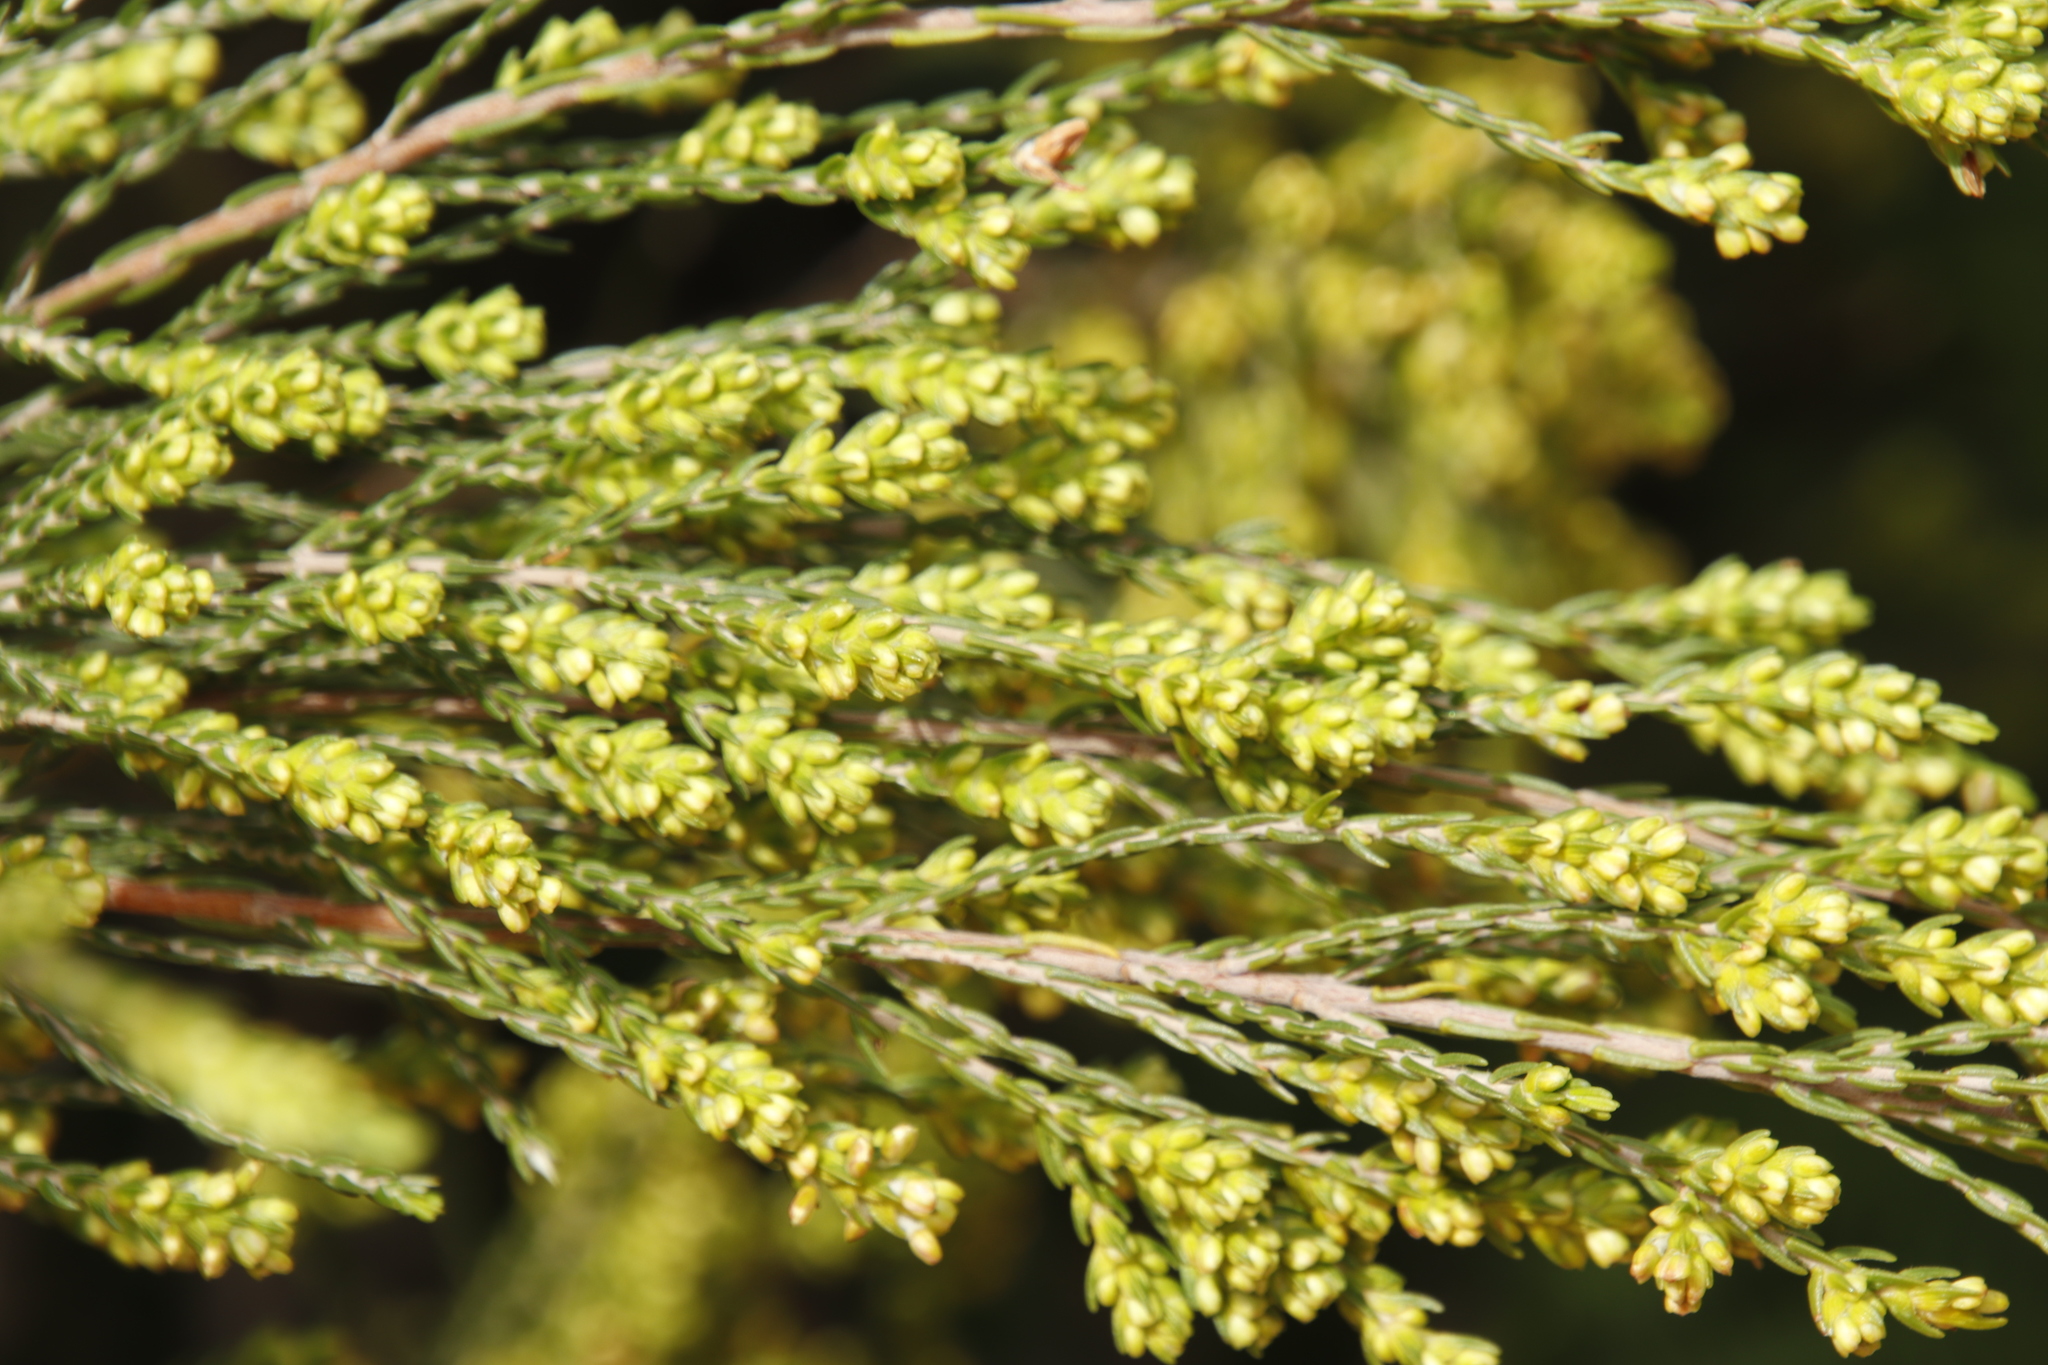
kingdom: Plantae
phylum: Tracheophyta
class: Magnoliopsida
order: Malvales
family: Thymelaeaceae
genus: Passerina
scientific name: Passerina corymbosa
